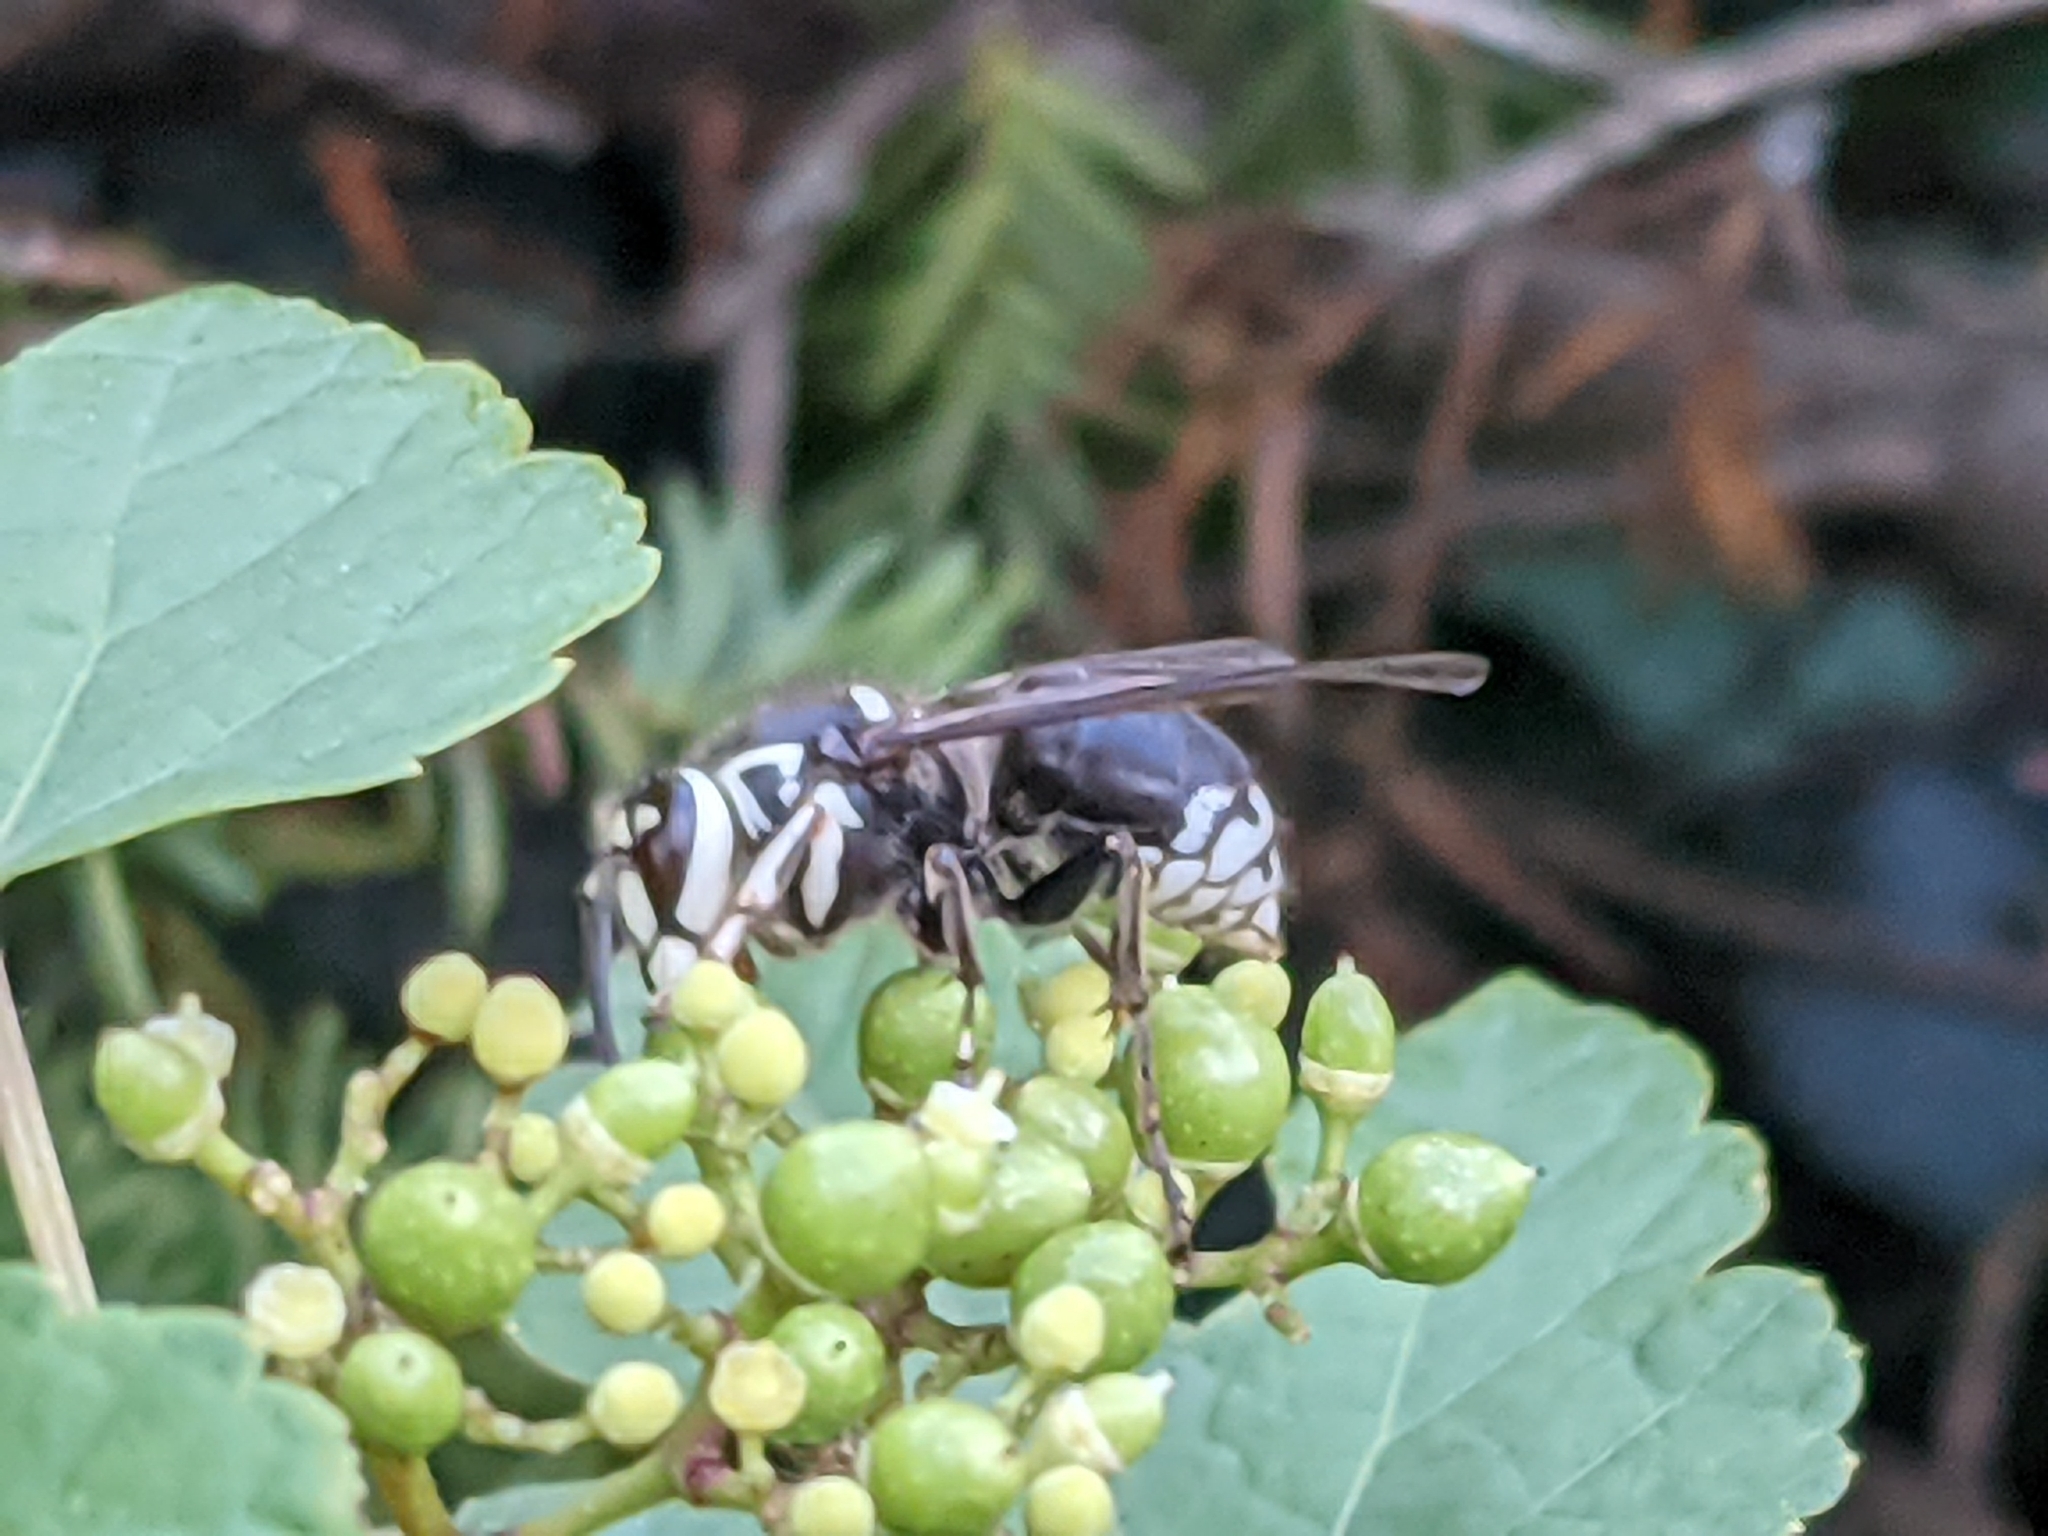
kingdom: Animalia
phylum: Arthropoda
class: Insecta
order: Hymenoptera
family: Vespidae
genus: Dolichovespula
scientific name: Dolichovespula maculata
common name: Bald-faced hornet
